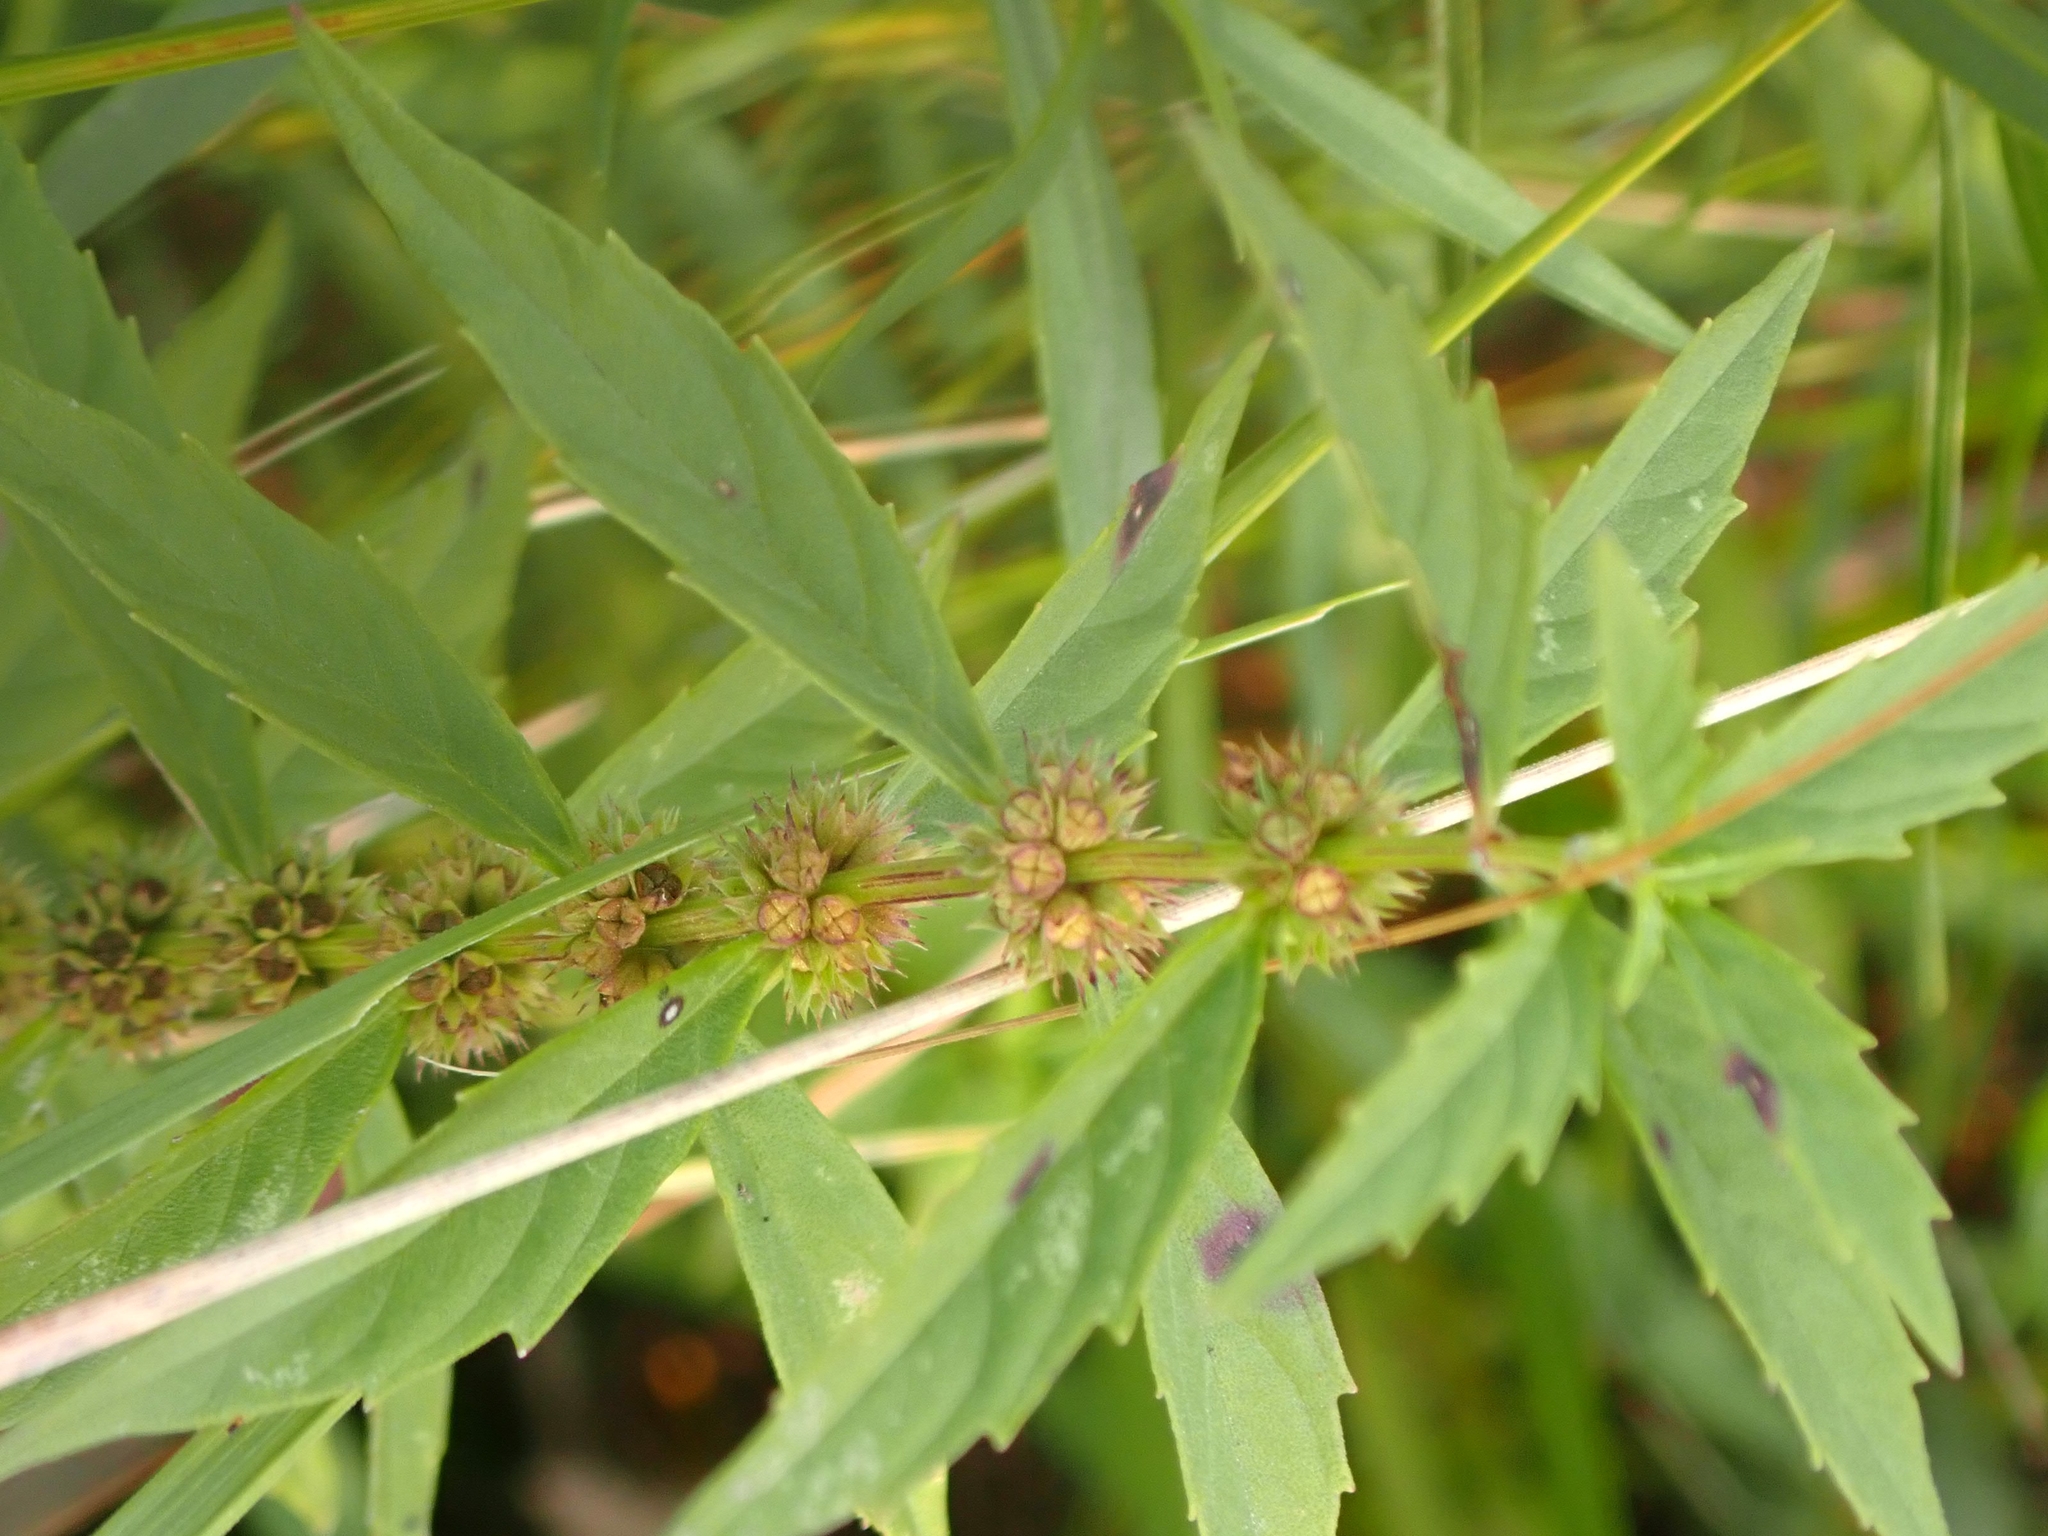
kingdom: Plantae
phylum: Tracheophyta
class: Magnoliopsida
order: Lamiales
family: Lamiaceae
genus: Lycopus
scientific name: Lycopus uniflorus
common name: Northern bugleweed
